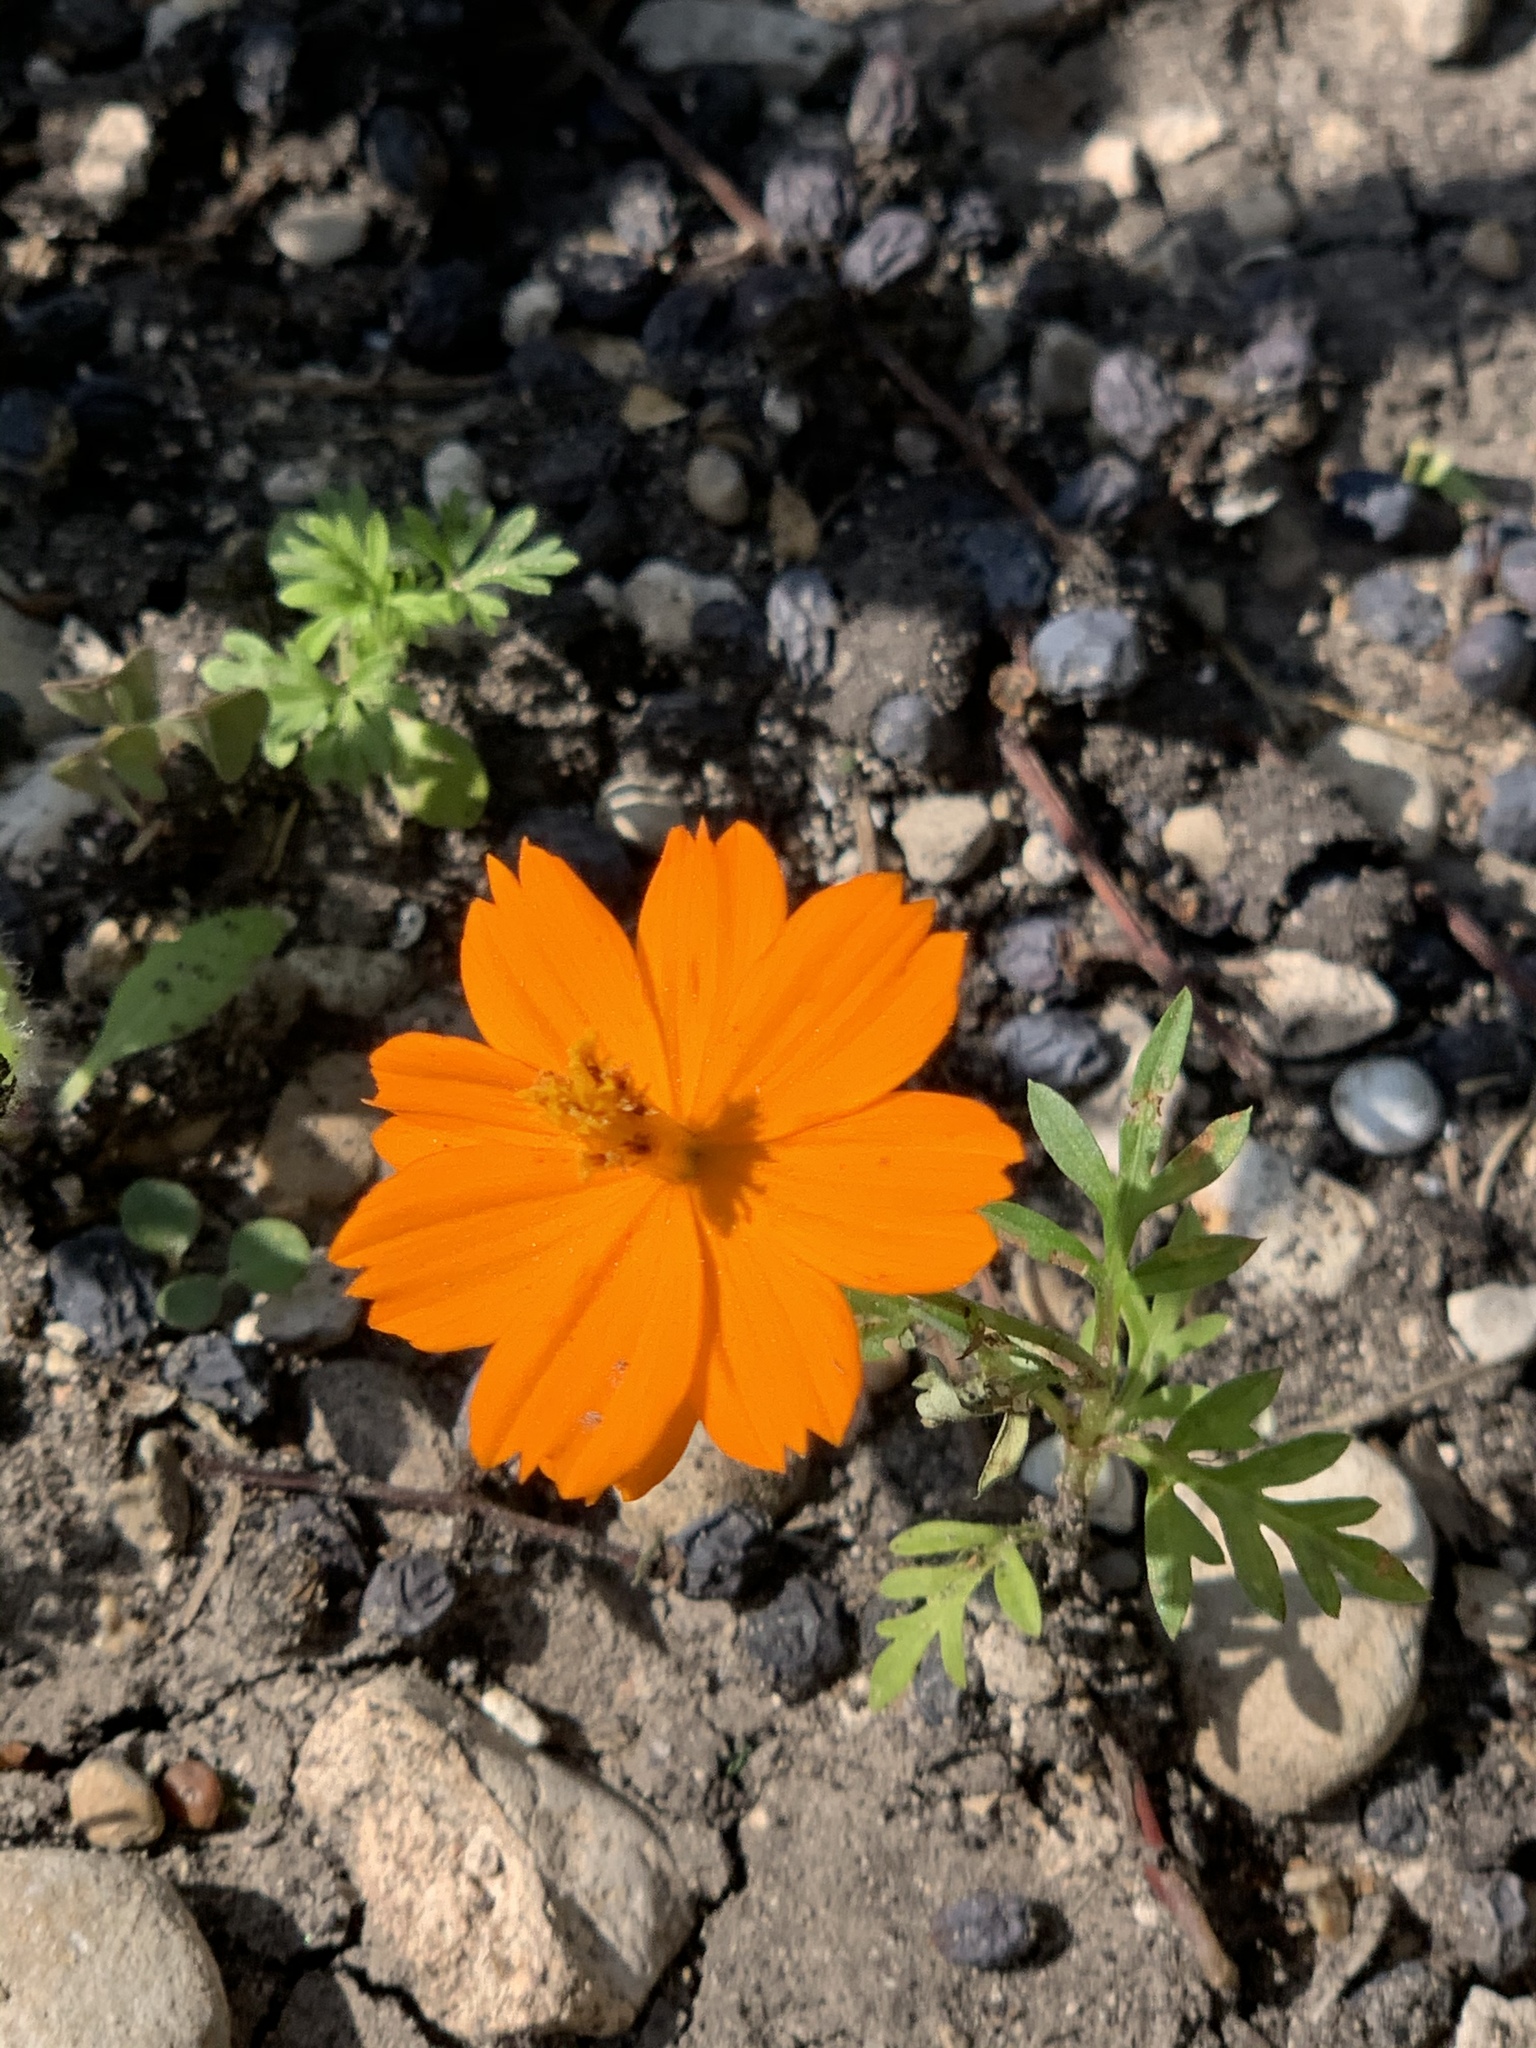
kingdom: Plantae
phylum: Tracheophyta
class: Magnoliopsida
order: Asterales
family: Asteraceae
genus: Cosmos
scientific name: Cosmos sulphureus
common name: Sulphur cosmos
